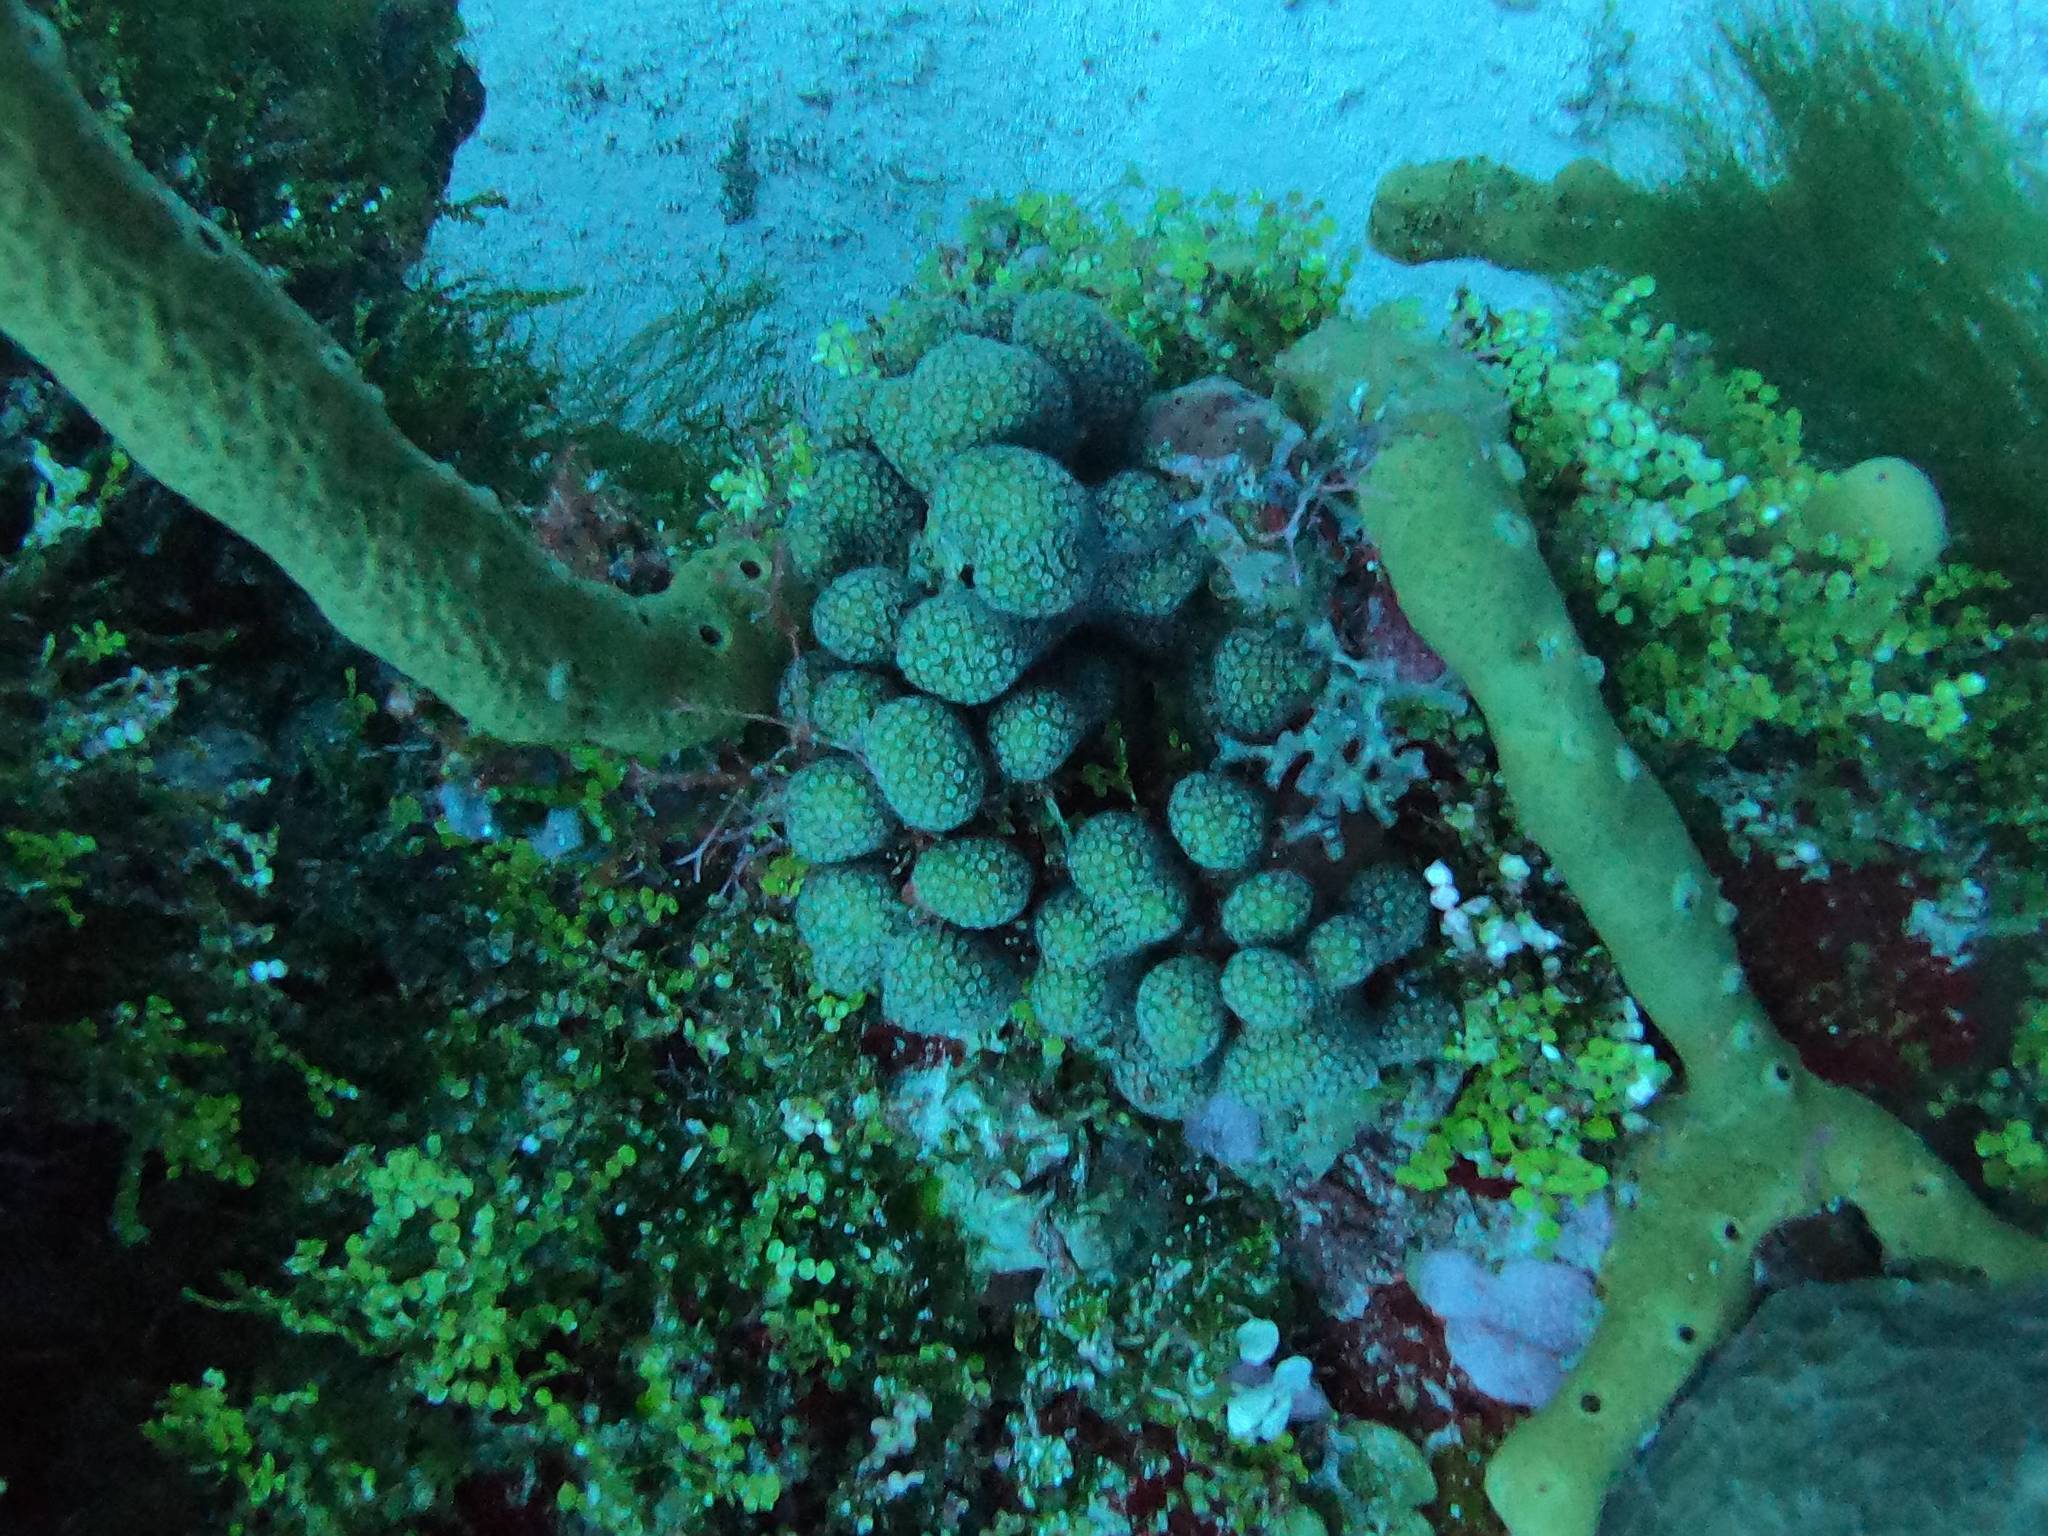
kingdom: Animalia
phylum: Cnidaria
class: Anthozoa
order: Scleractinia
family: Pocilloporidae
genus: Madracis
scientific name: Madracis decactis
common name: Ten-ray star coral
